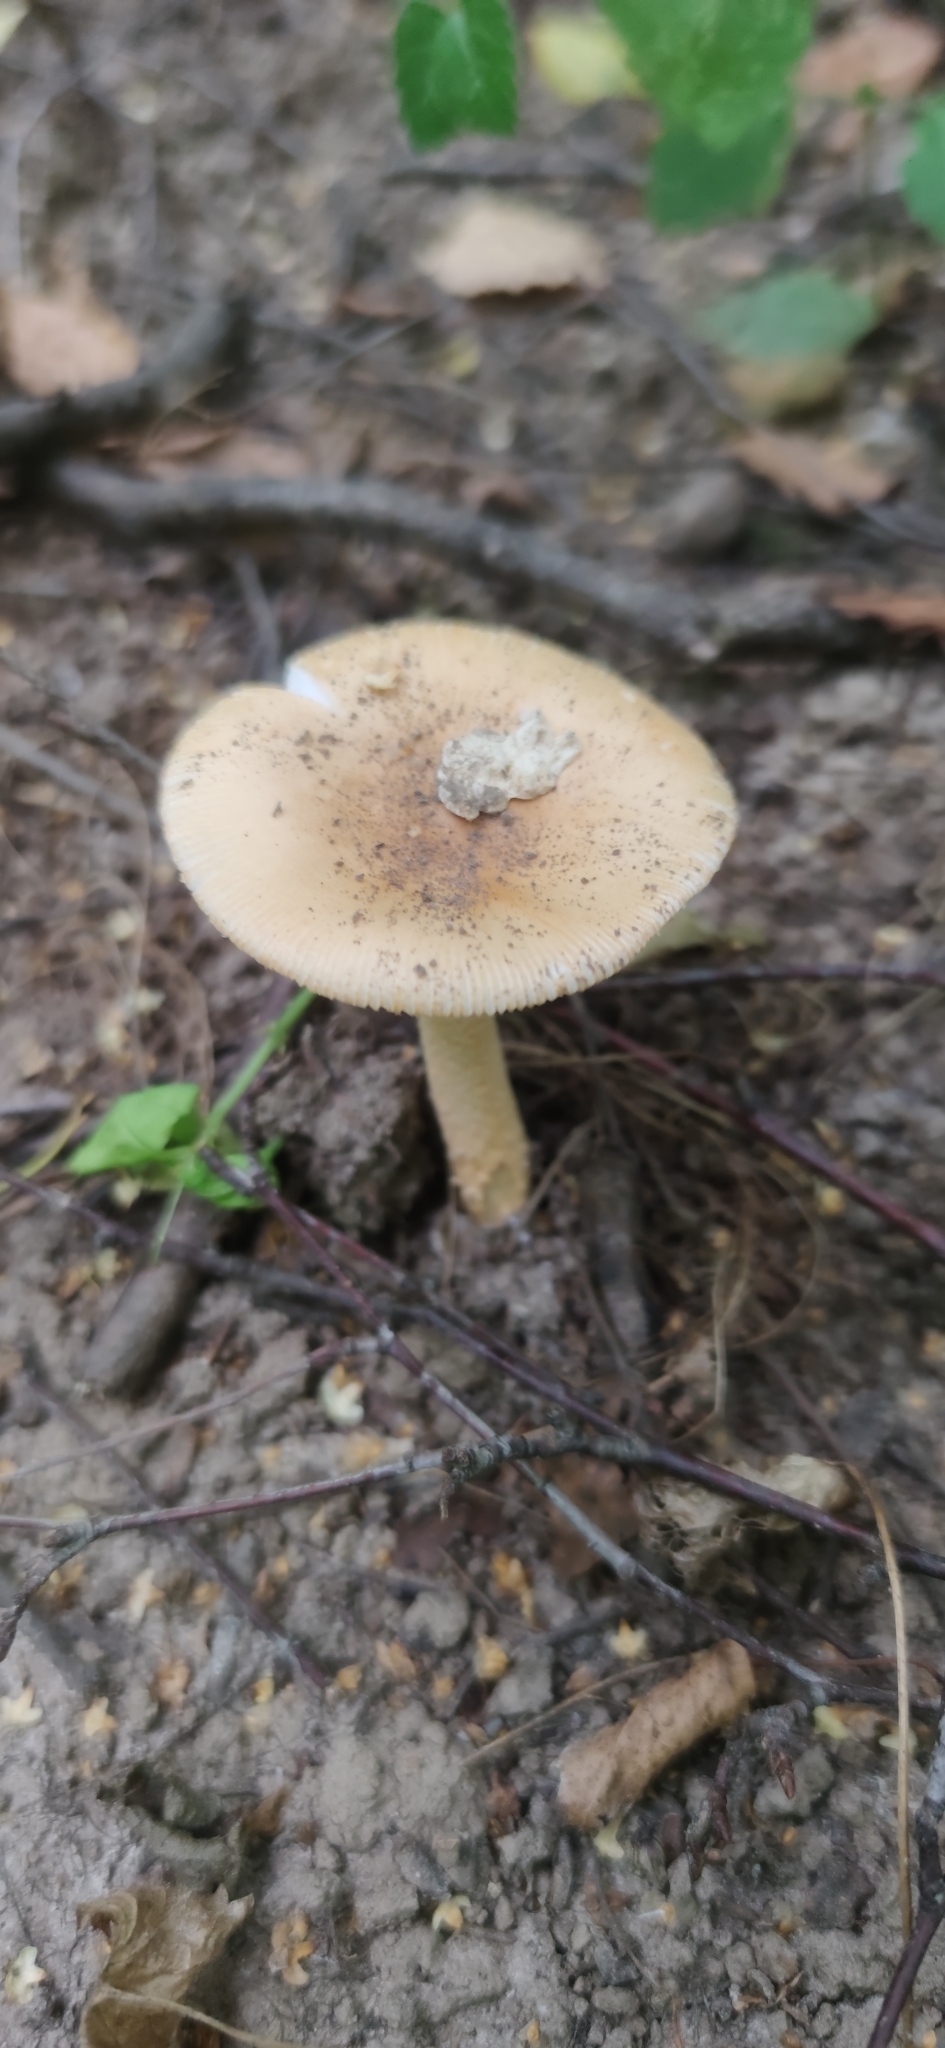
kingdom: Fungi
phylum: Basidiomycota
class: Agaricomycetes
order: Agaricales
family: Amanitaceae
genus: Amanita
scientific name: Amanita fulva
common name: Tawny grisette
